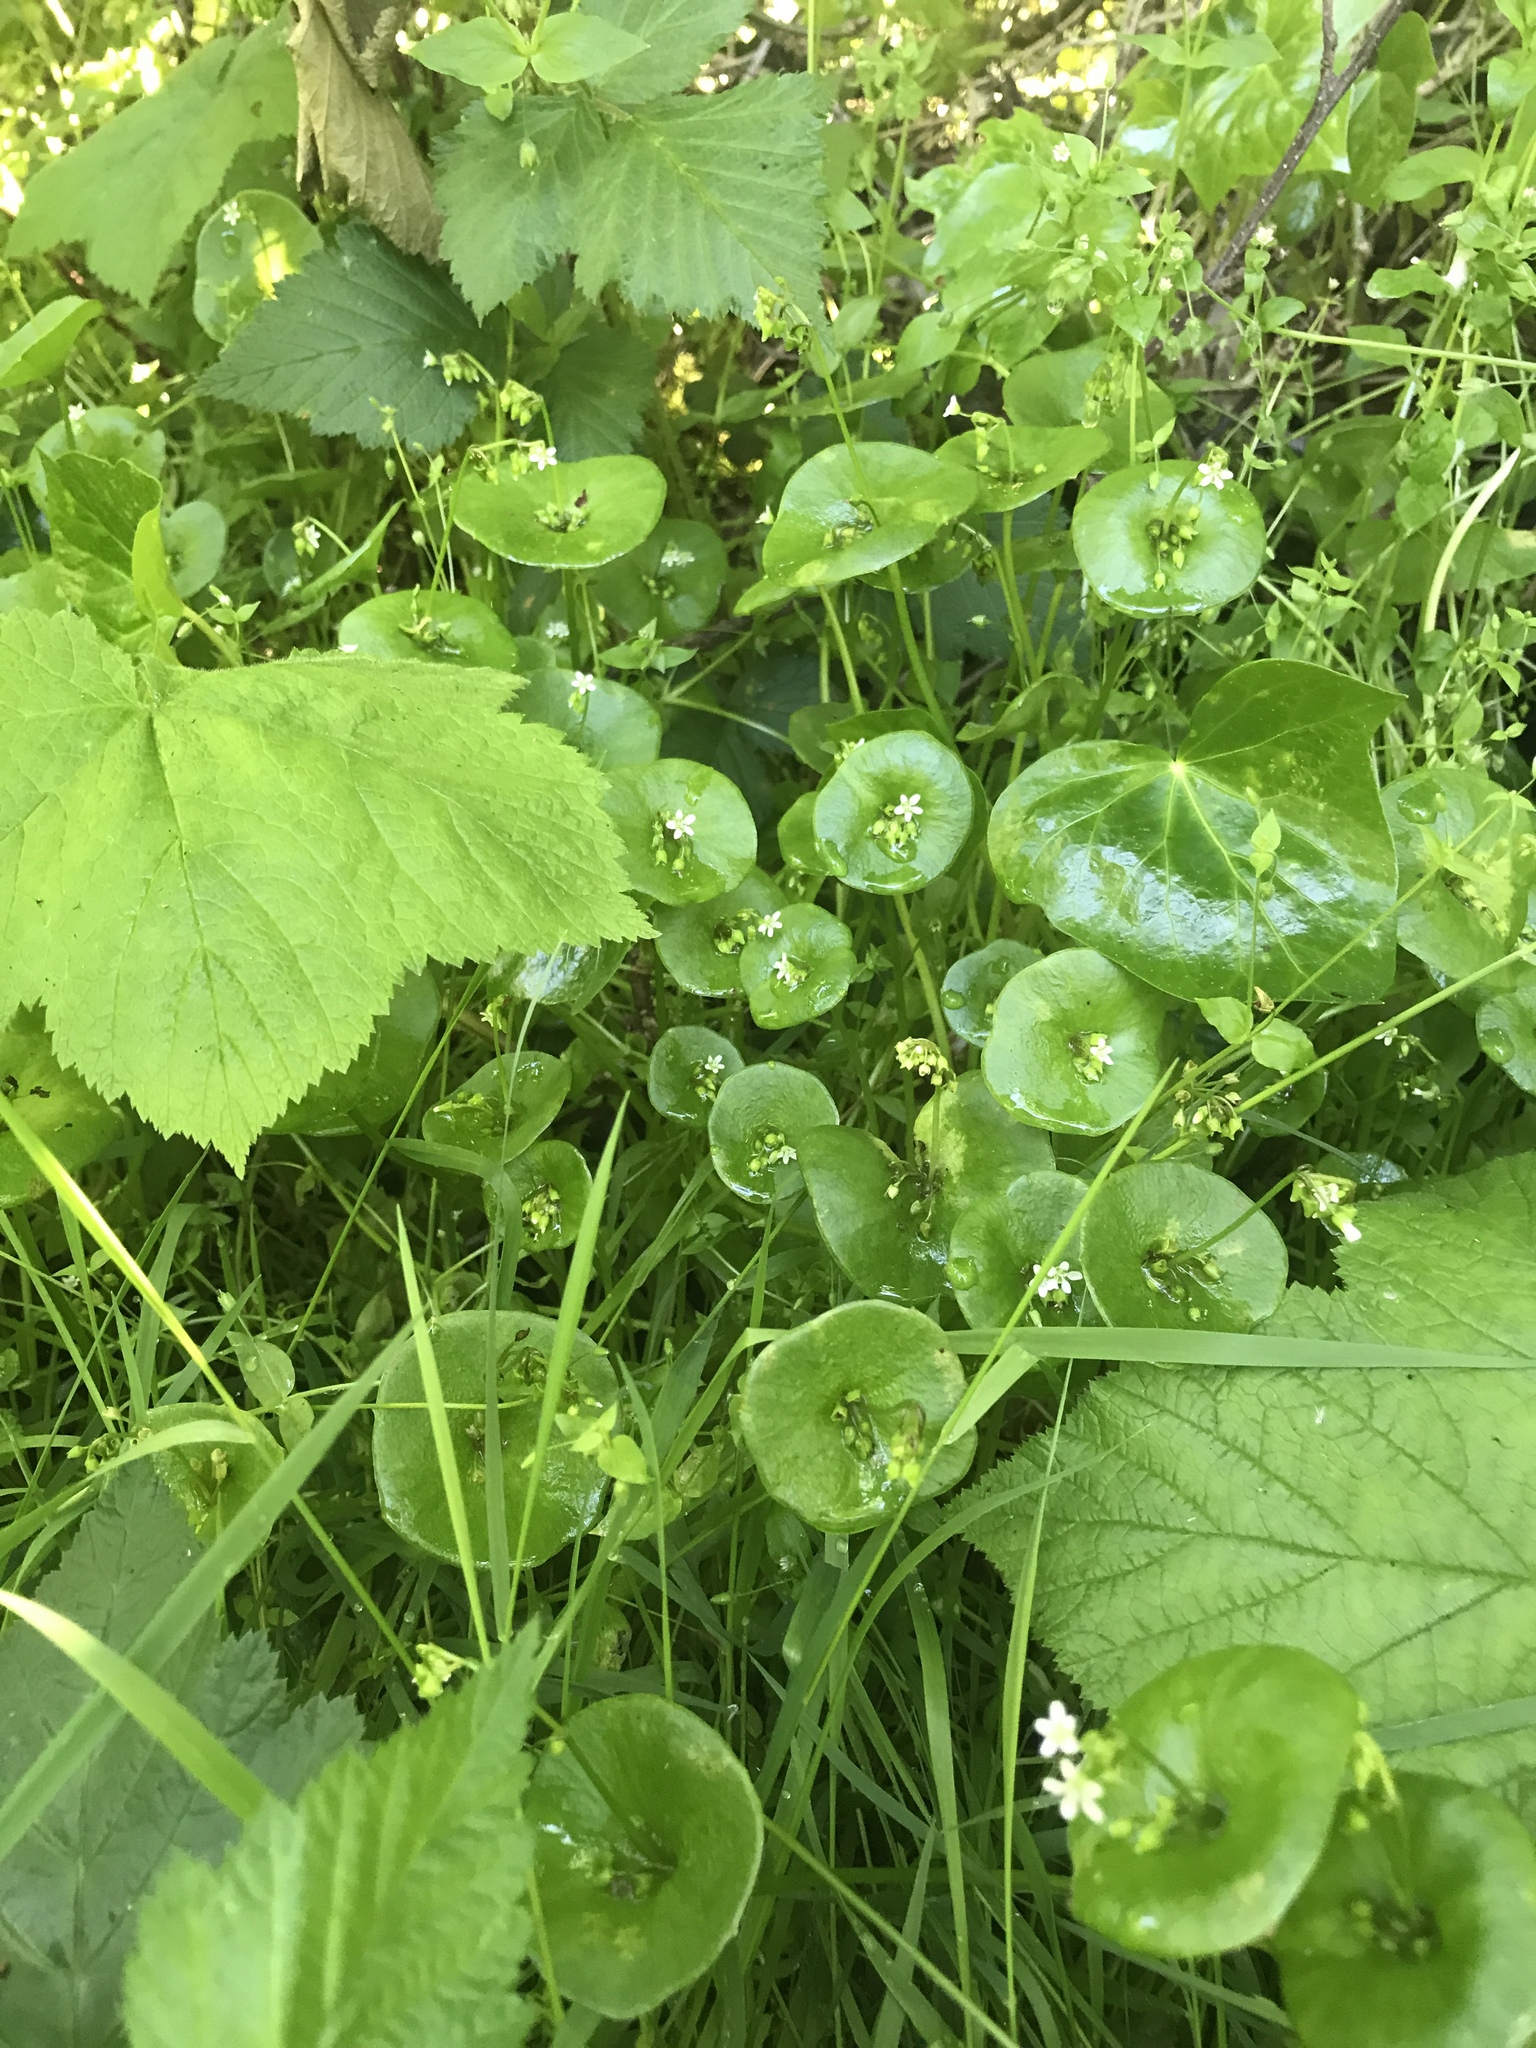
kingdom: Plantae
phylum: Tracheophyta
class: Magnoliopsida
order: Caryophyllales
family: Montiaceae
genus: Claytonia
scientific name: Claytonia perfoliata
